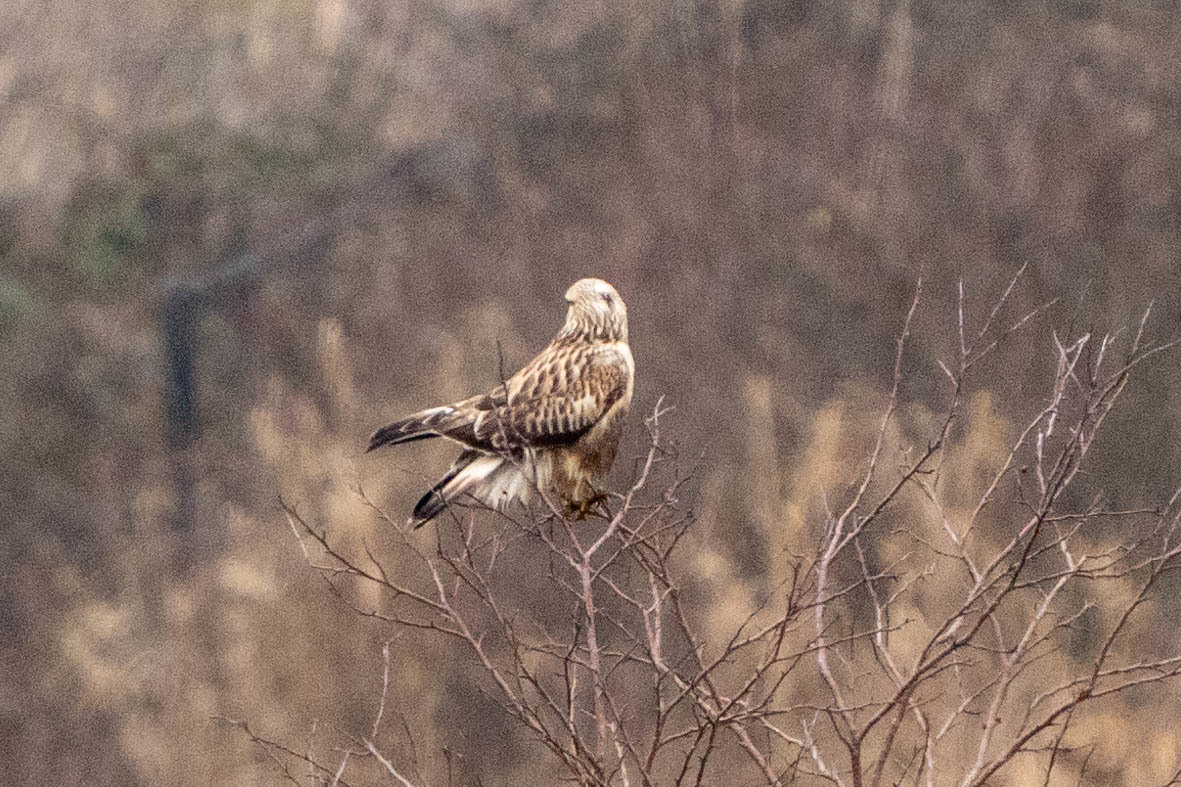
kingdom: Animalia
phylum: Chordata
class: Aves
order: Accipitriformes
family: Accipitridae
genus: Buteo
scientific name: Buteo lagopus
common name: Rough-legged buzzard
